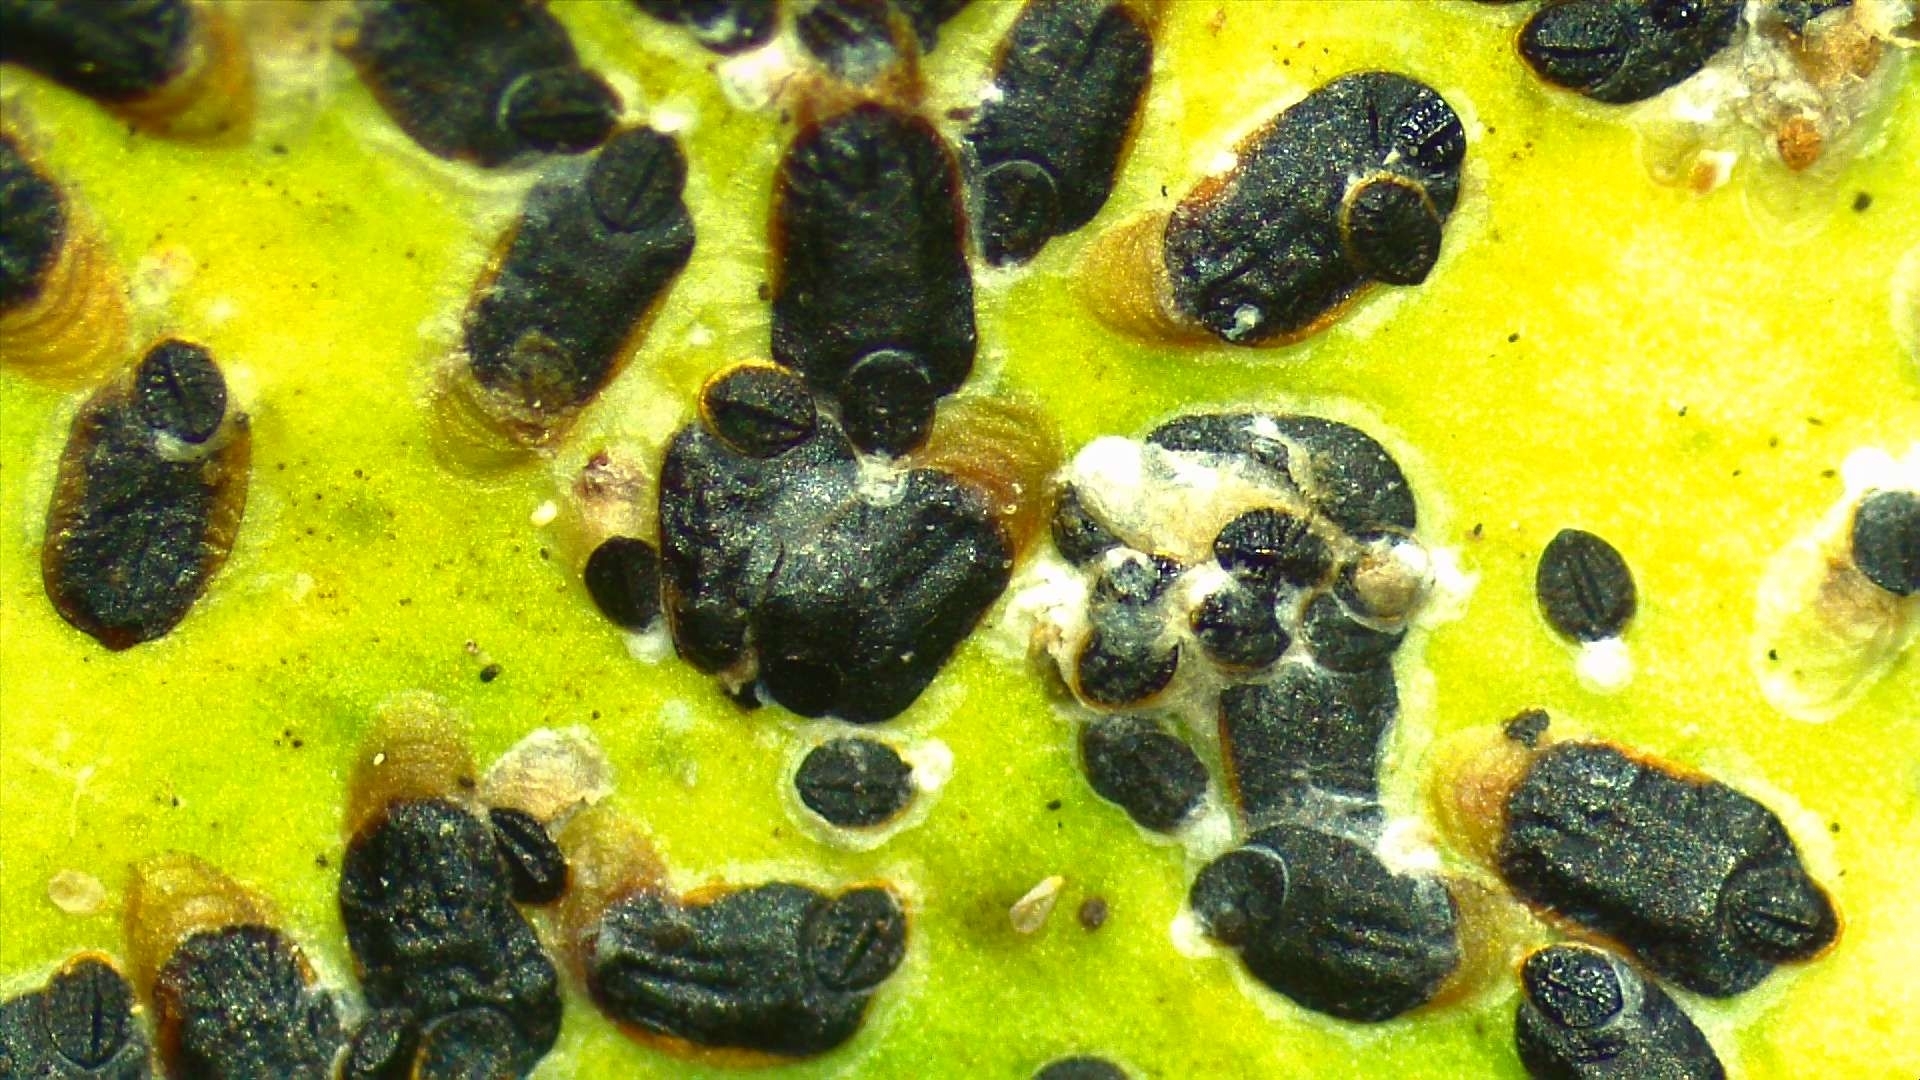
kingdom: Animalia
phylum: Arthropoda
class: Insecta
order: Hemiptera
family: Diaspididae
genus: Parlatoria
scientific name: Parlatoria ziziphi
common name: Mediterranean scale
